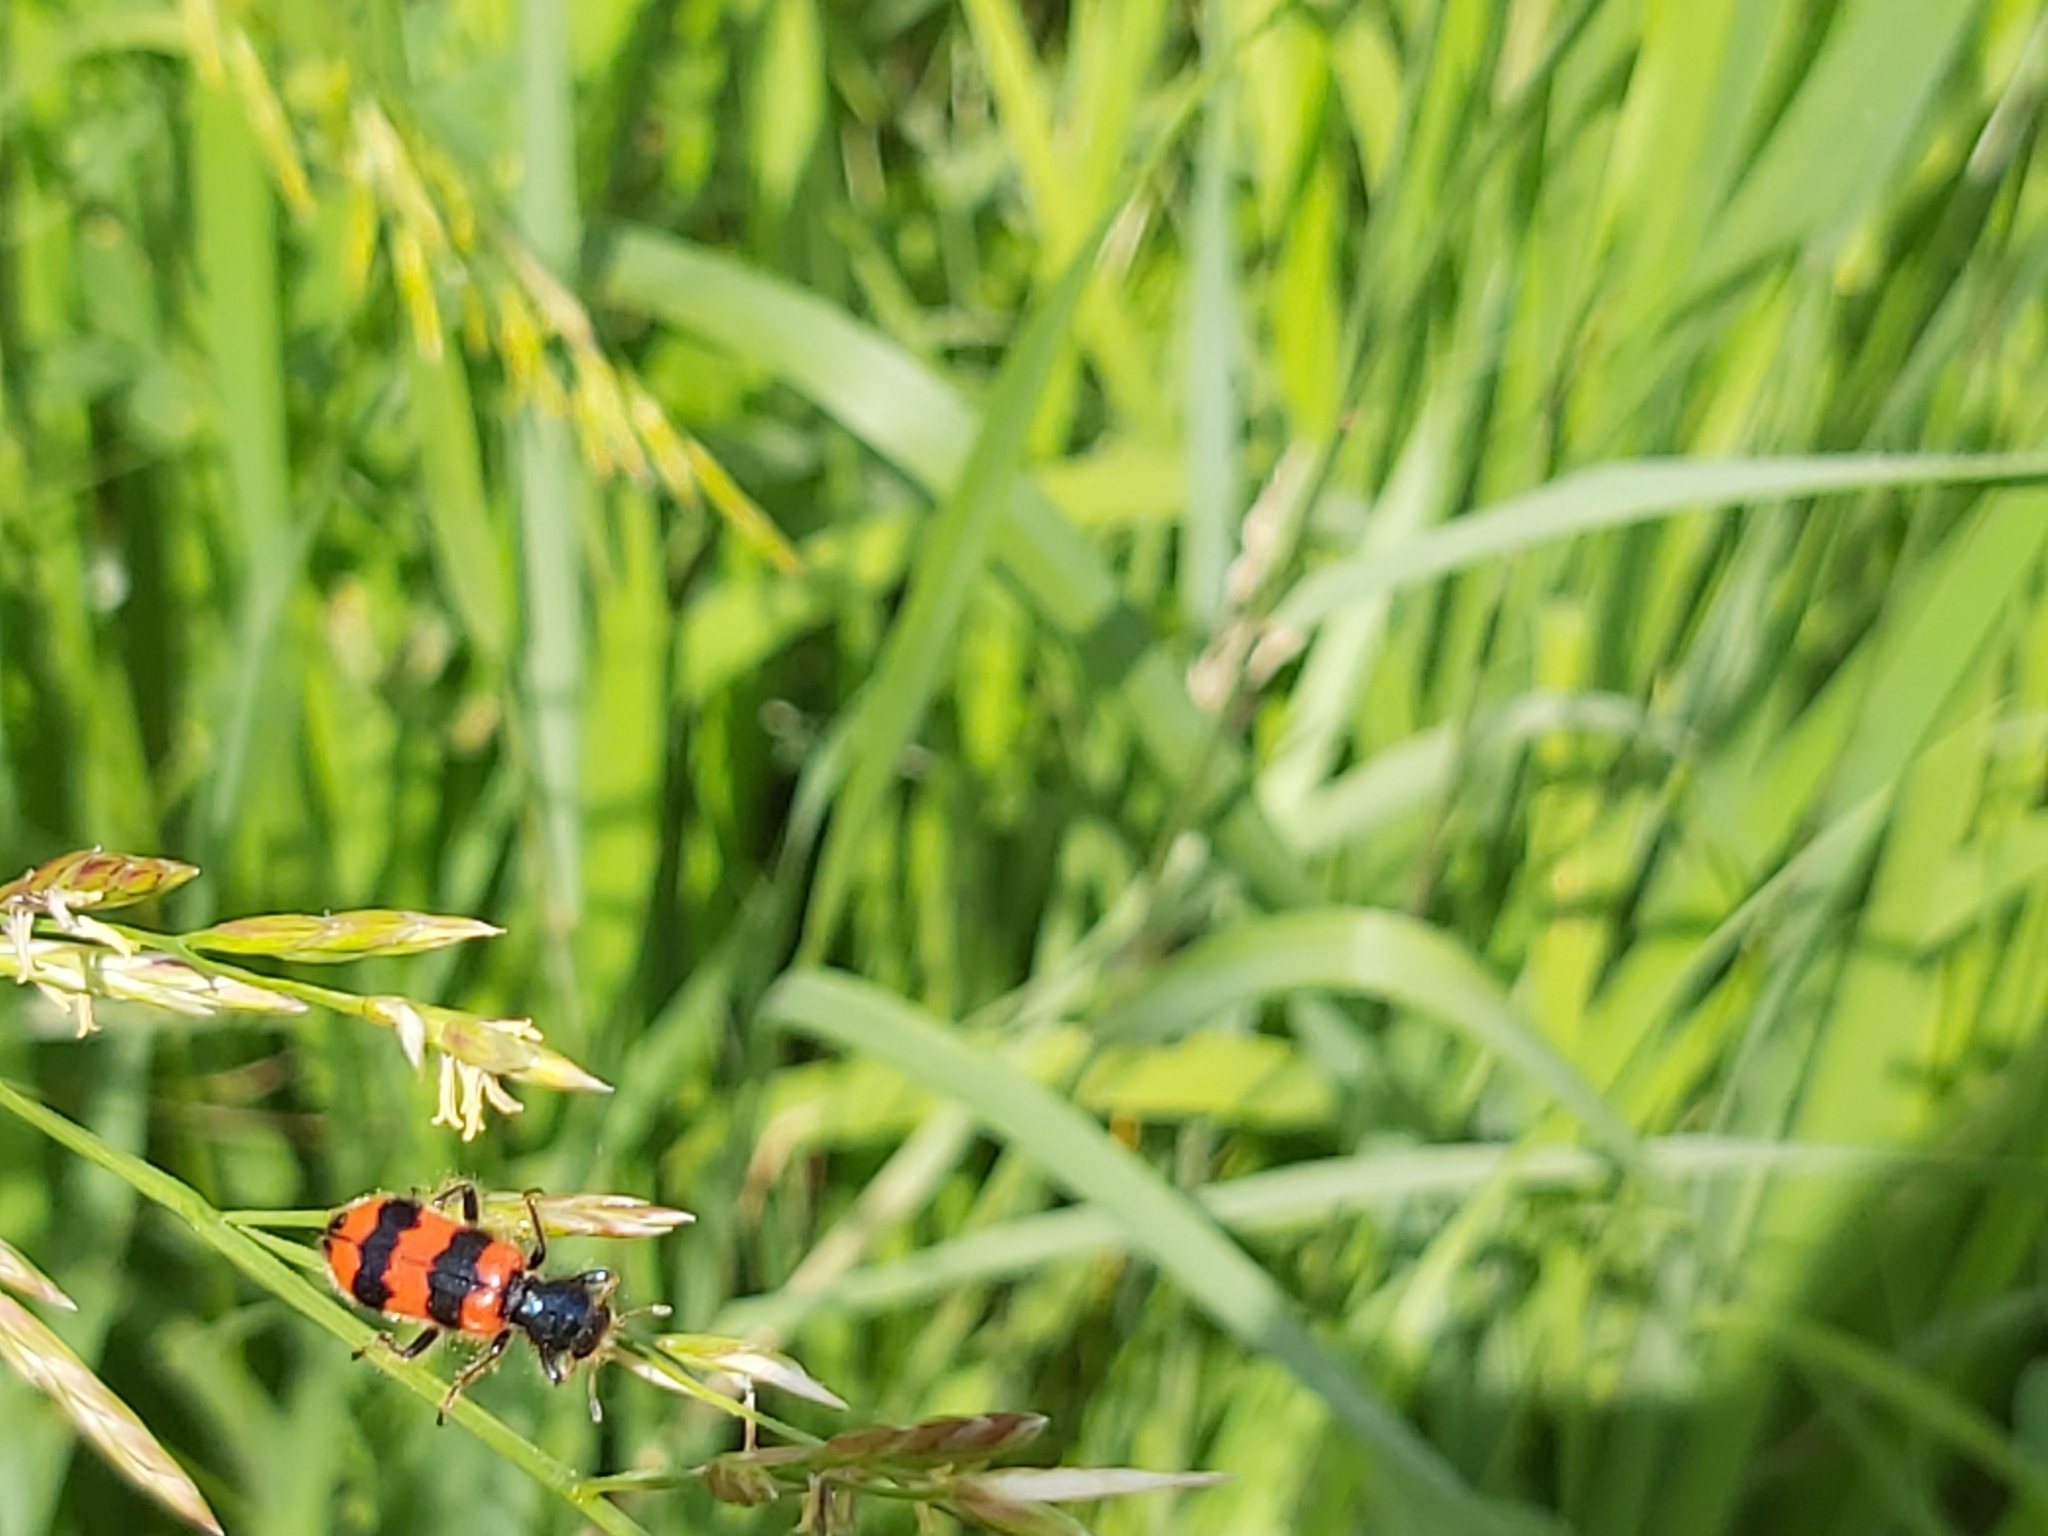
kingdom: Animalia
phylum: Arthropoda
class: Insecta
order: Coleoptera
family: Cleridae
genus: Trichodes
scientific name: Trichodes apiarius
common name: Bee-eating beetle
